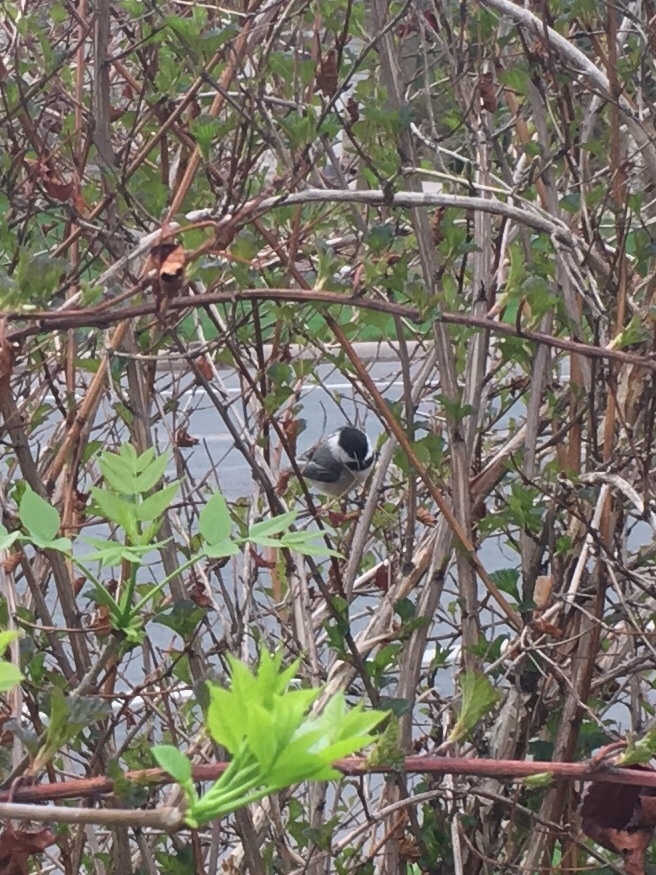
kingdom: Animalia
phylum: Chordata
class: Aves
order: Passeriformes
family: Paridae
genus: Poecile
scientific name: Poecile atricapillus
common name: Black-capped chickadee
